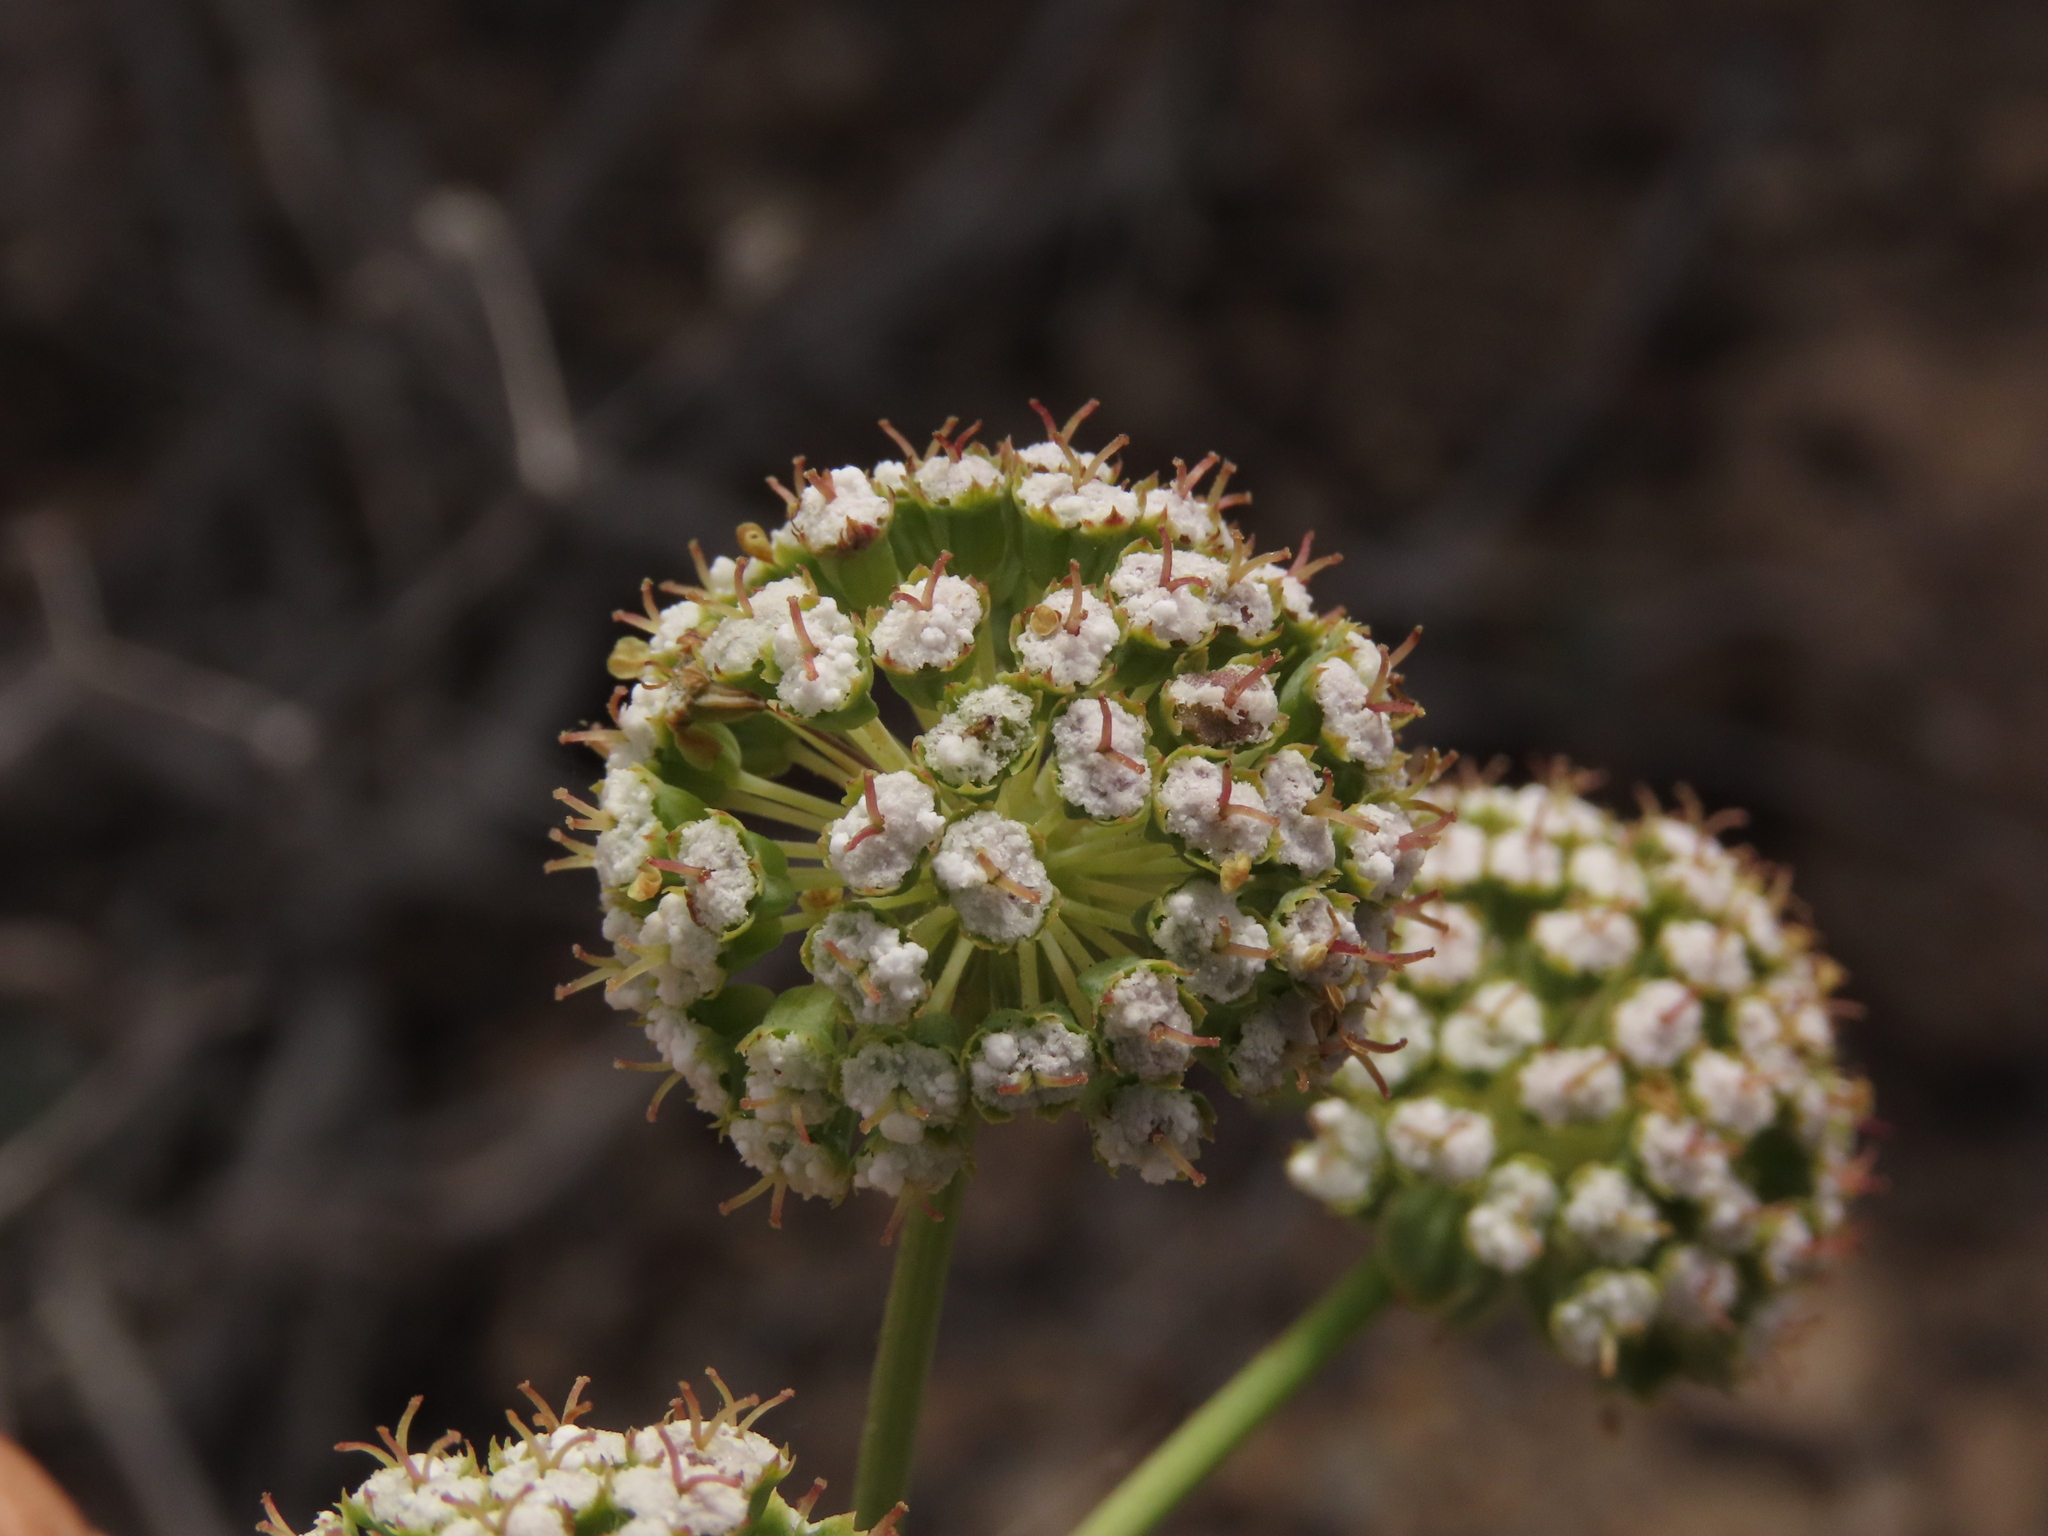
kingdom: Plantae
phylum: Tracheophyta
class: Magnoliopsida
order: Apiales
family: Apiaceae
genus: Eremocharis
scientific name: Eremocharis fruticosa
